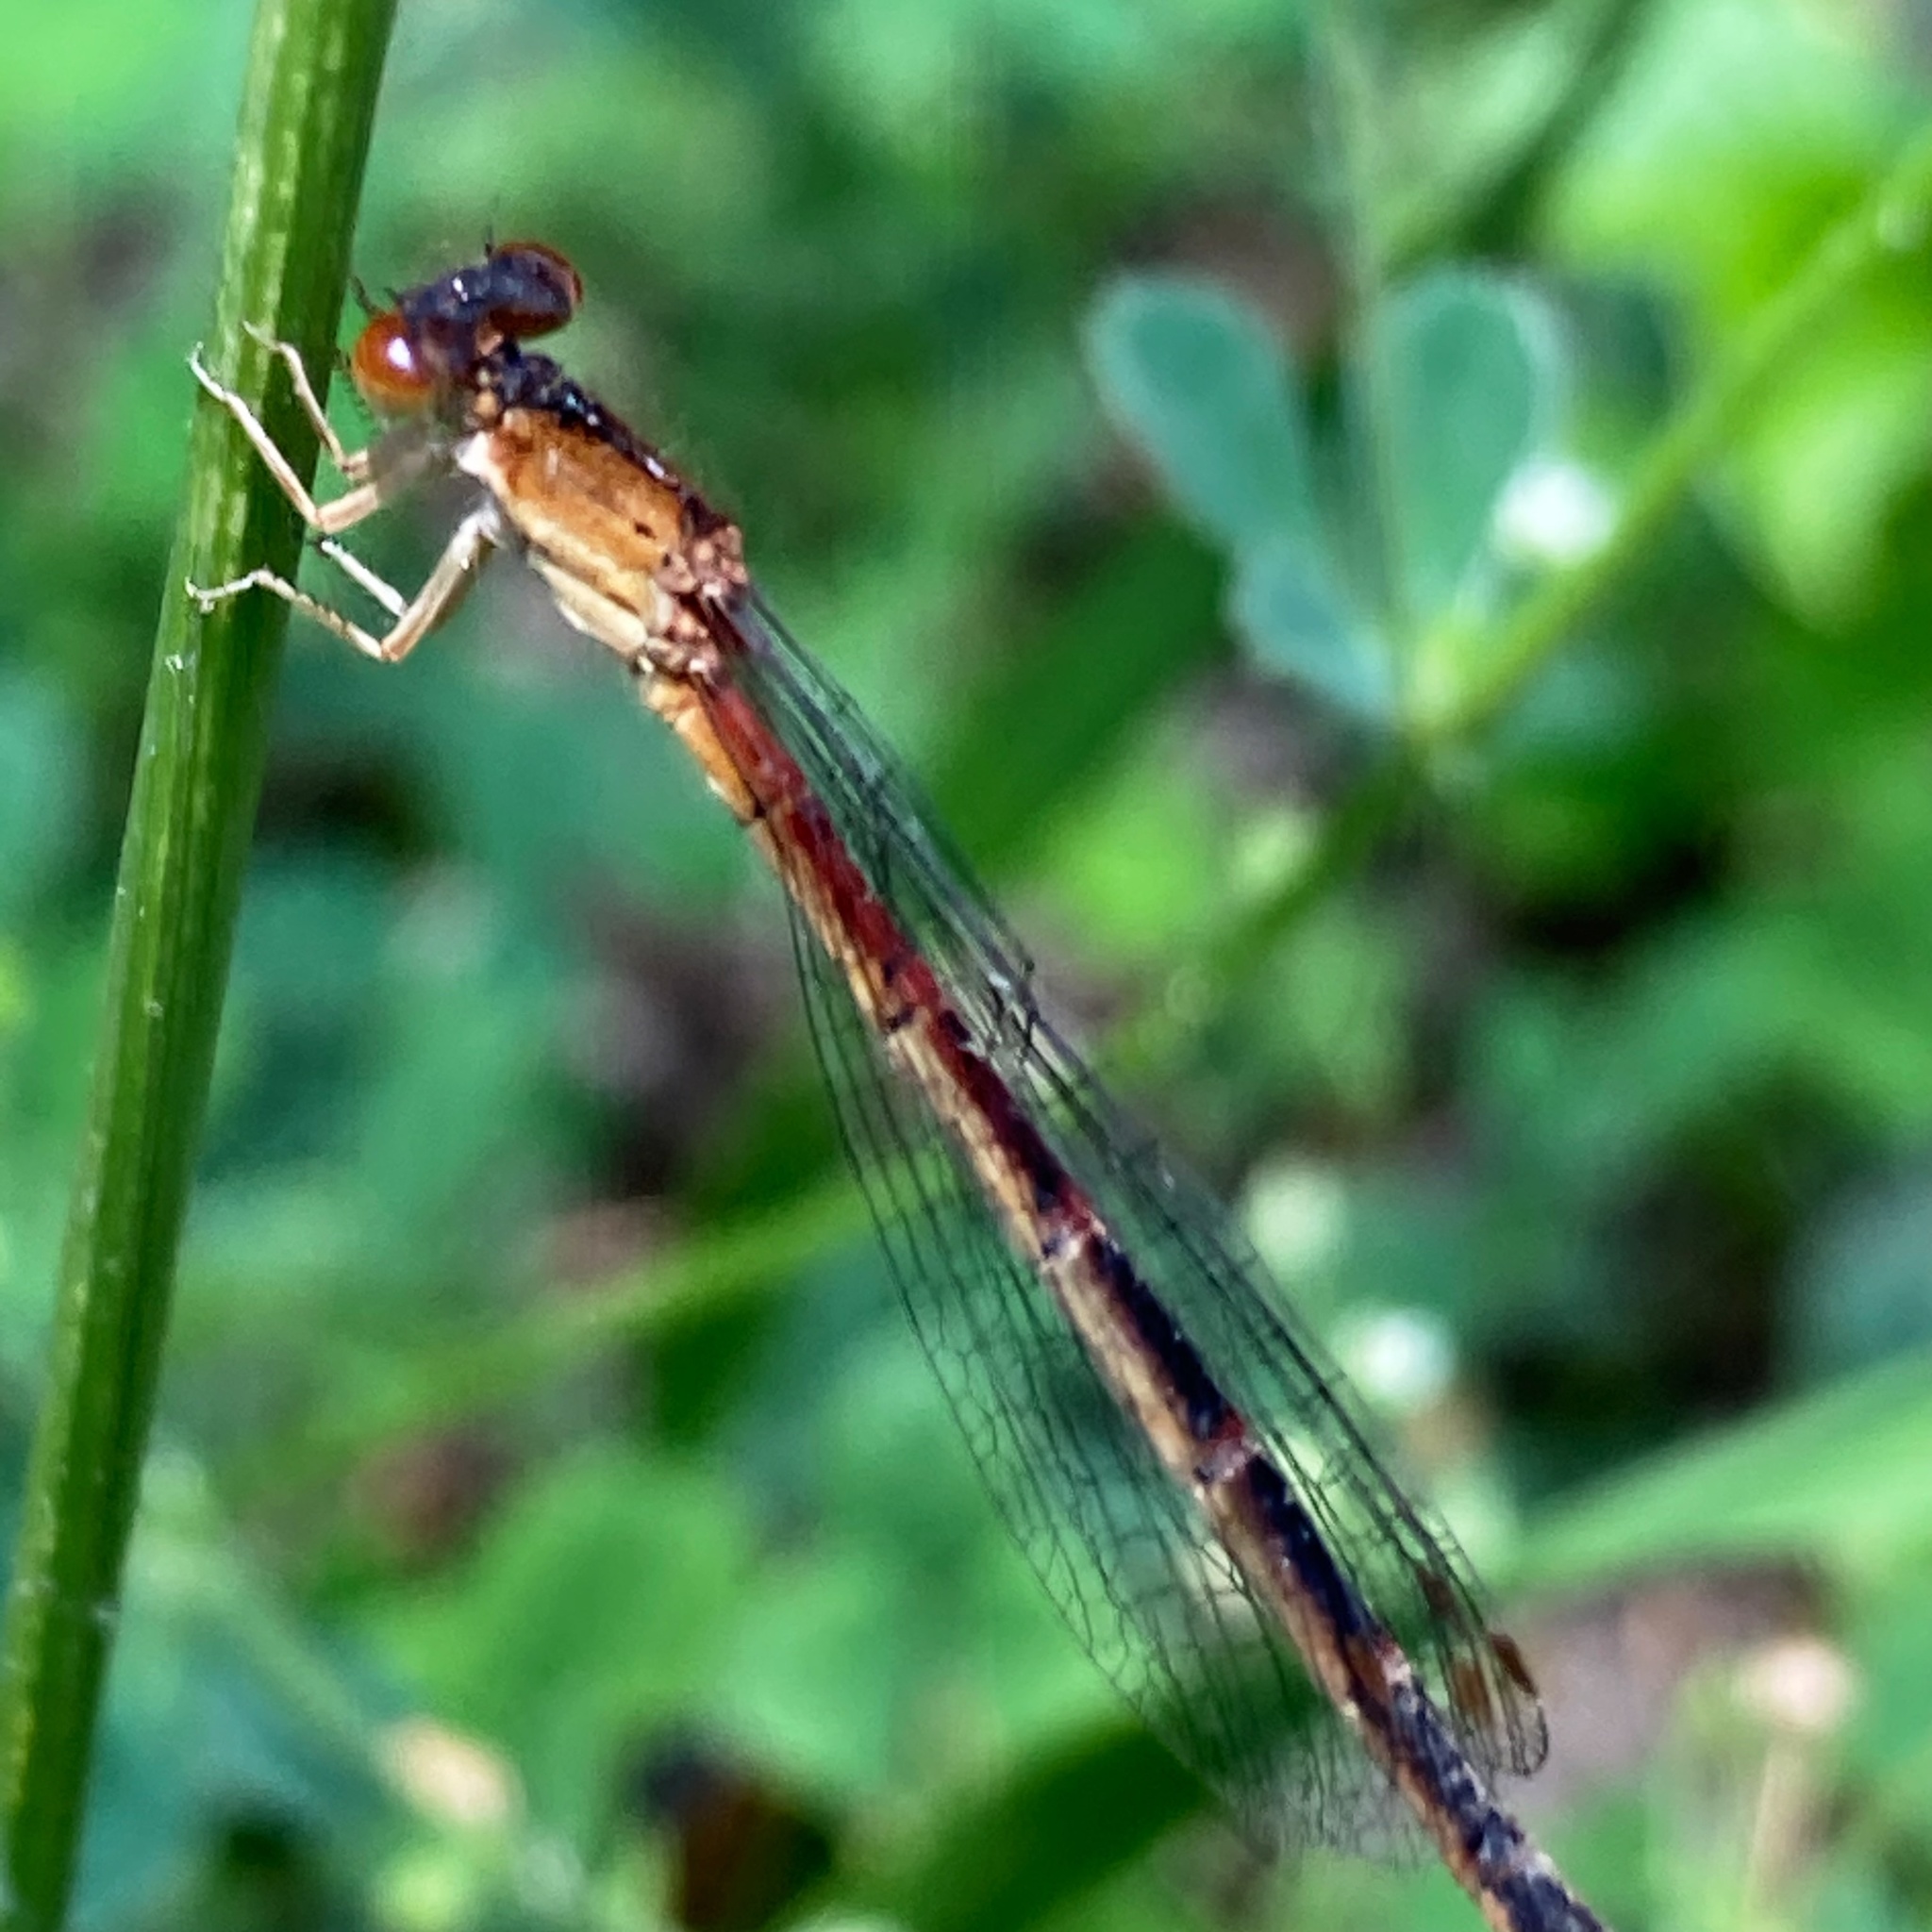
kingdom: Animalia
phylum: Arthropoda
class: Insecta
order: Odonata
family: Coenagrionidae
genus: Amphiagrion
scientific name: Amphiagrion saucium
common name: Eastern red damsel
